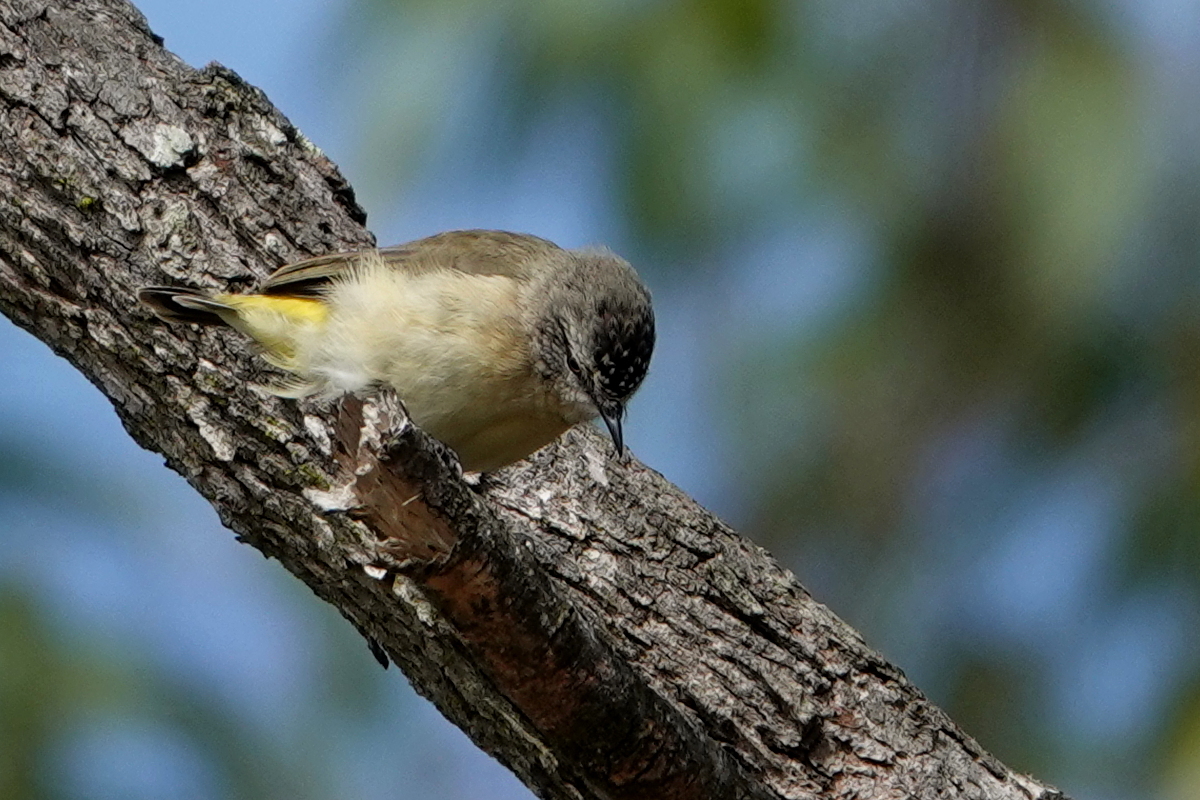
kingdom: Animalia
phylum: Chordata
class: Aves
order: Passeriformes
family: Acanthizidae
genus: Acanthiza
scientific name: Acanthiza chrysorrhoa
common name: Yellow-rumped thornbill
